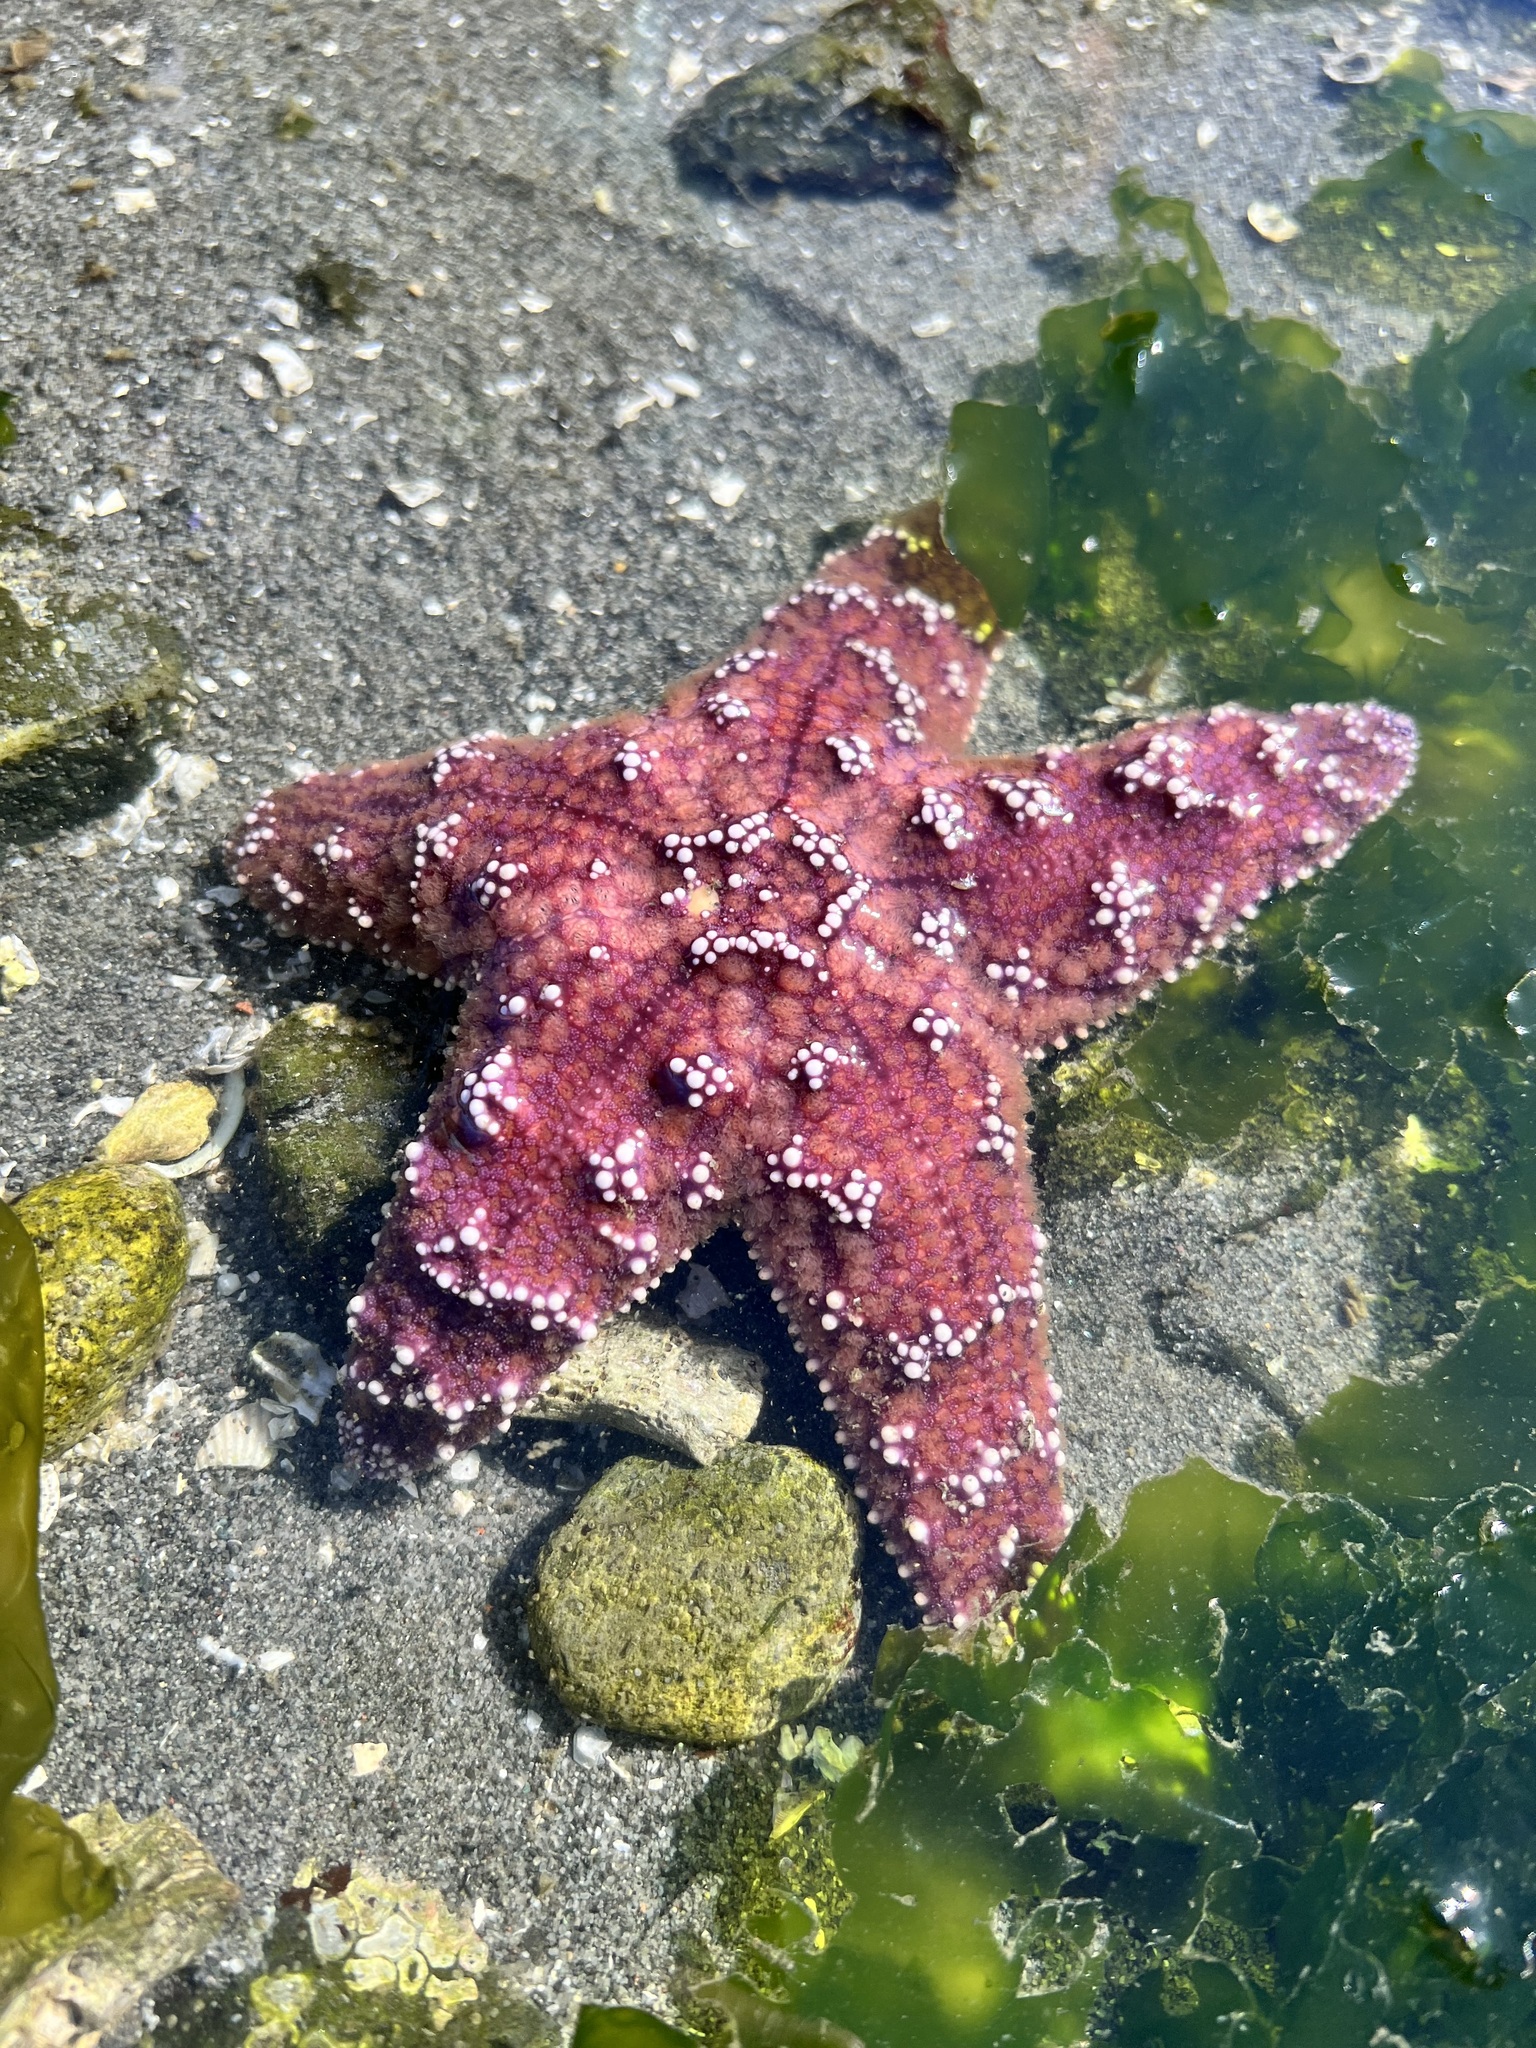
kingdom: Animalia
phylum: Echinodermata
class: Asteroidea
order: Forcipulatida
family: Asteriidae
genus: Pisaster
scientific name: Pisaster ochraceus
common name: Ochre stars
